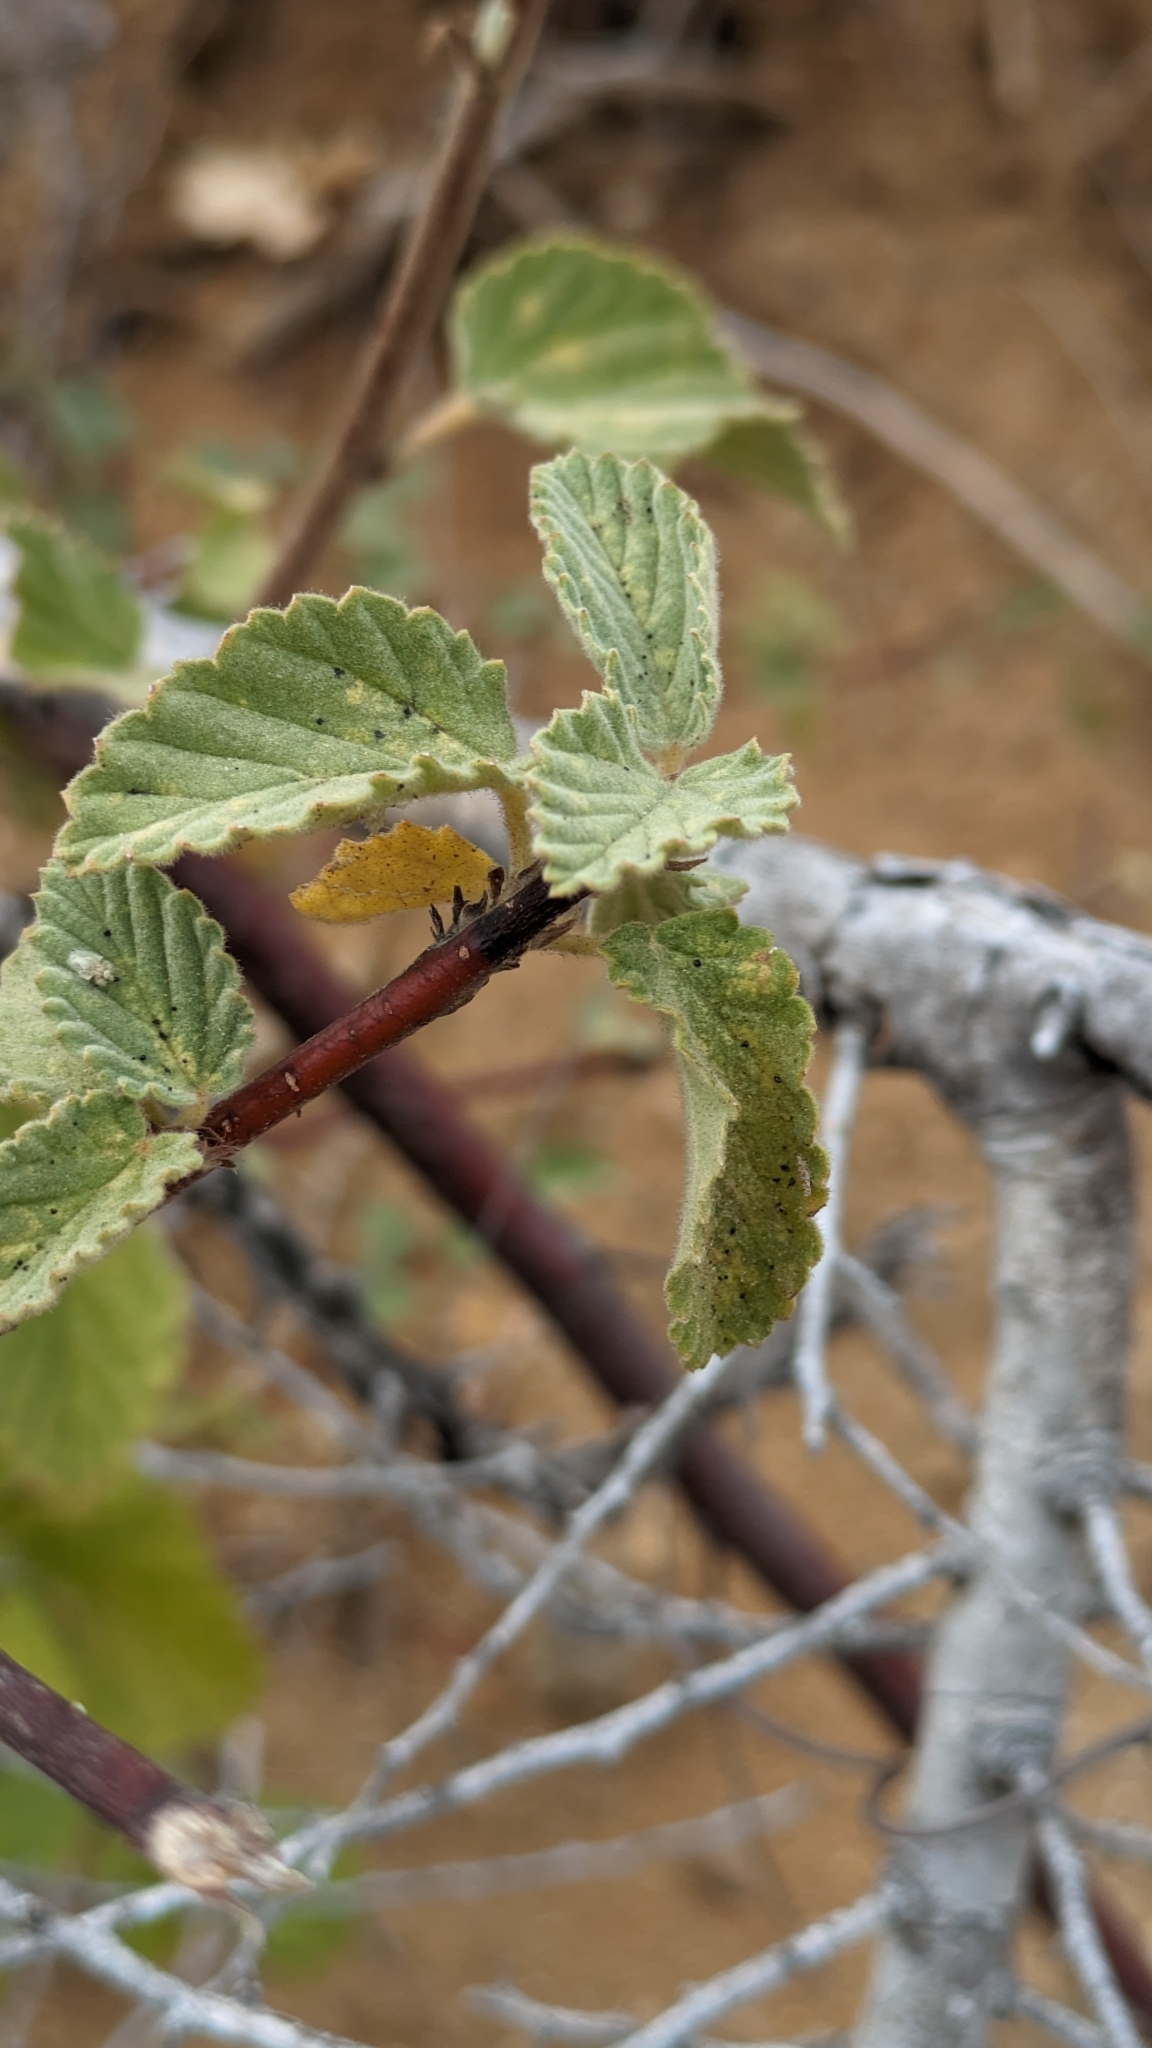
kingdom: Plantae
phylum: Tracheophyta
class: Magnoliopsida
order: Malvales
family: Malvaceae
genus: Melochia
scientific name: Melochia tomentosa
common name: Black torch
